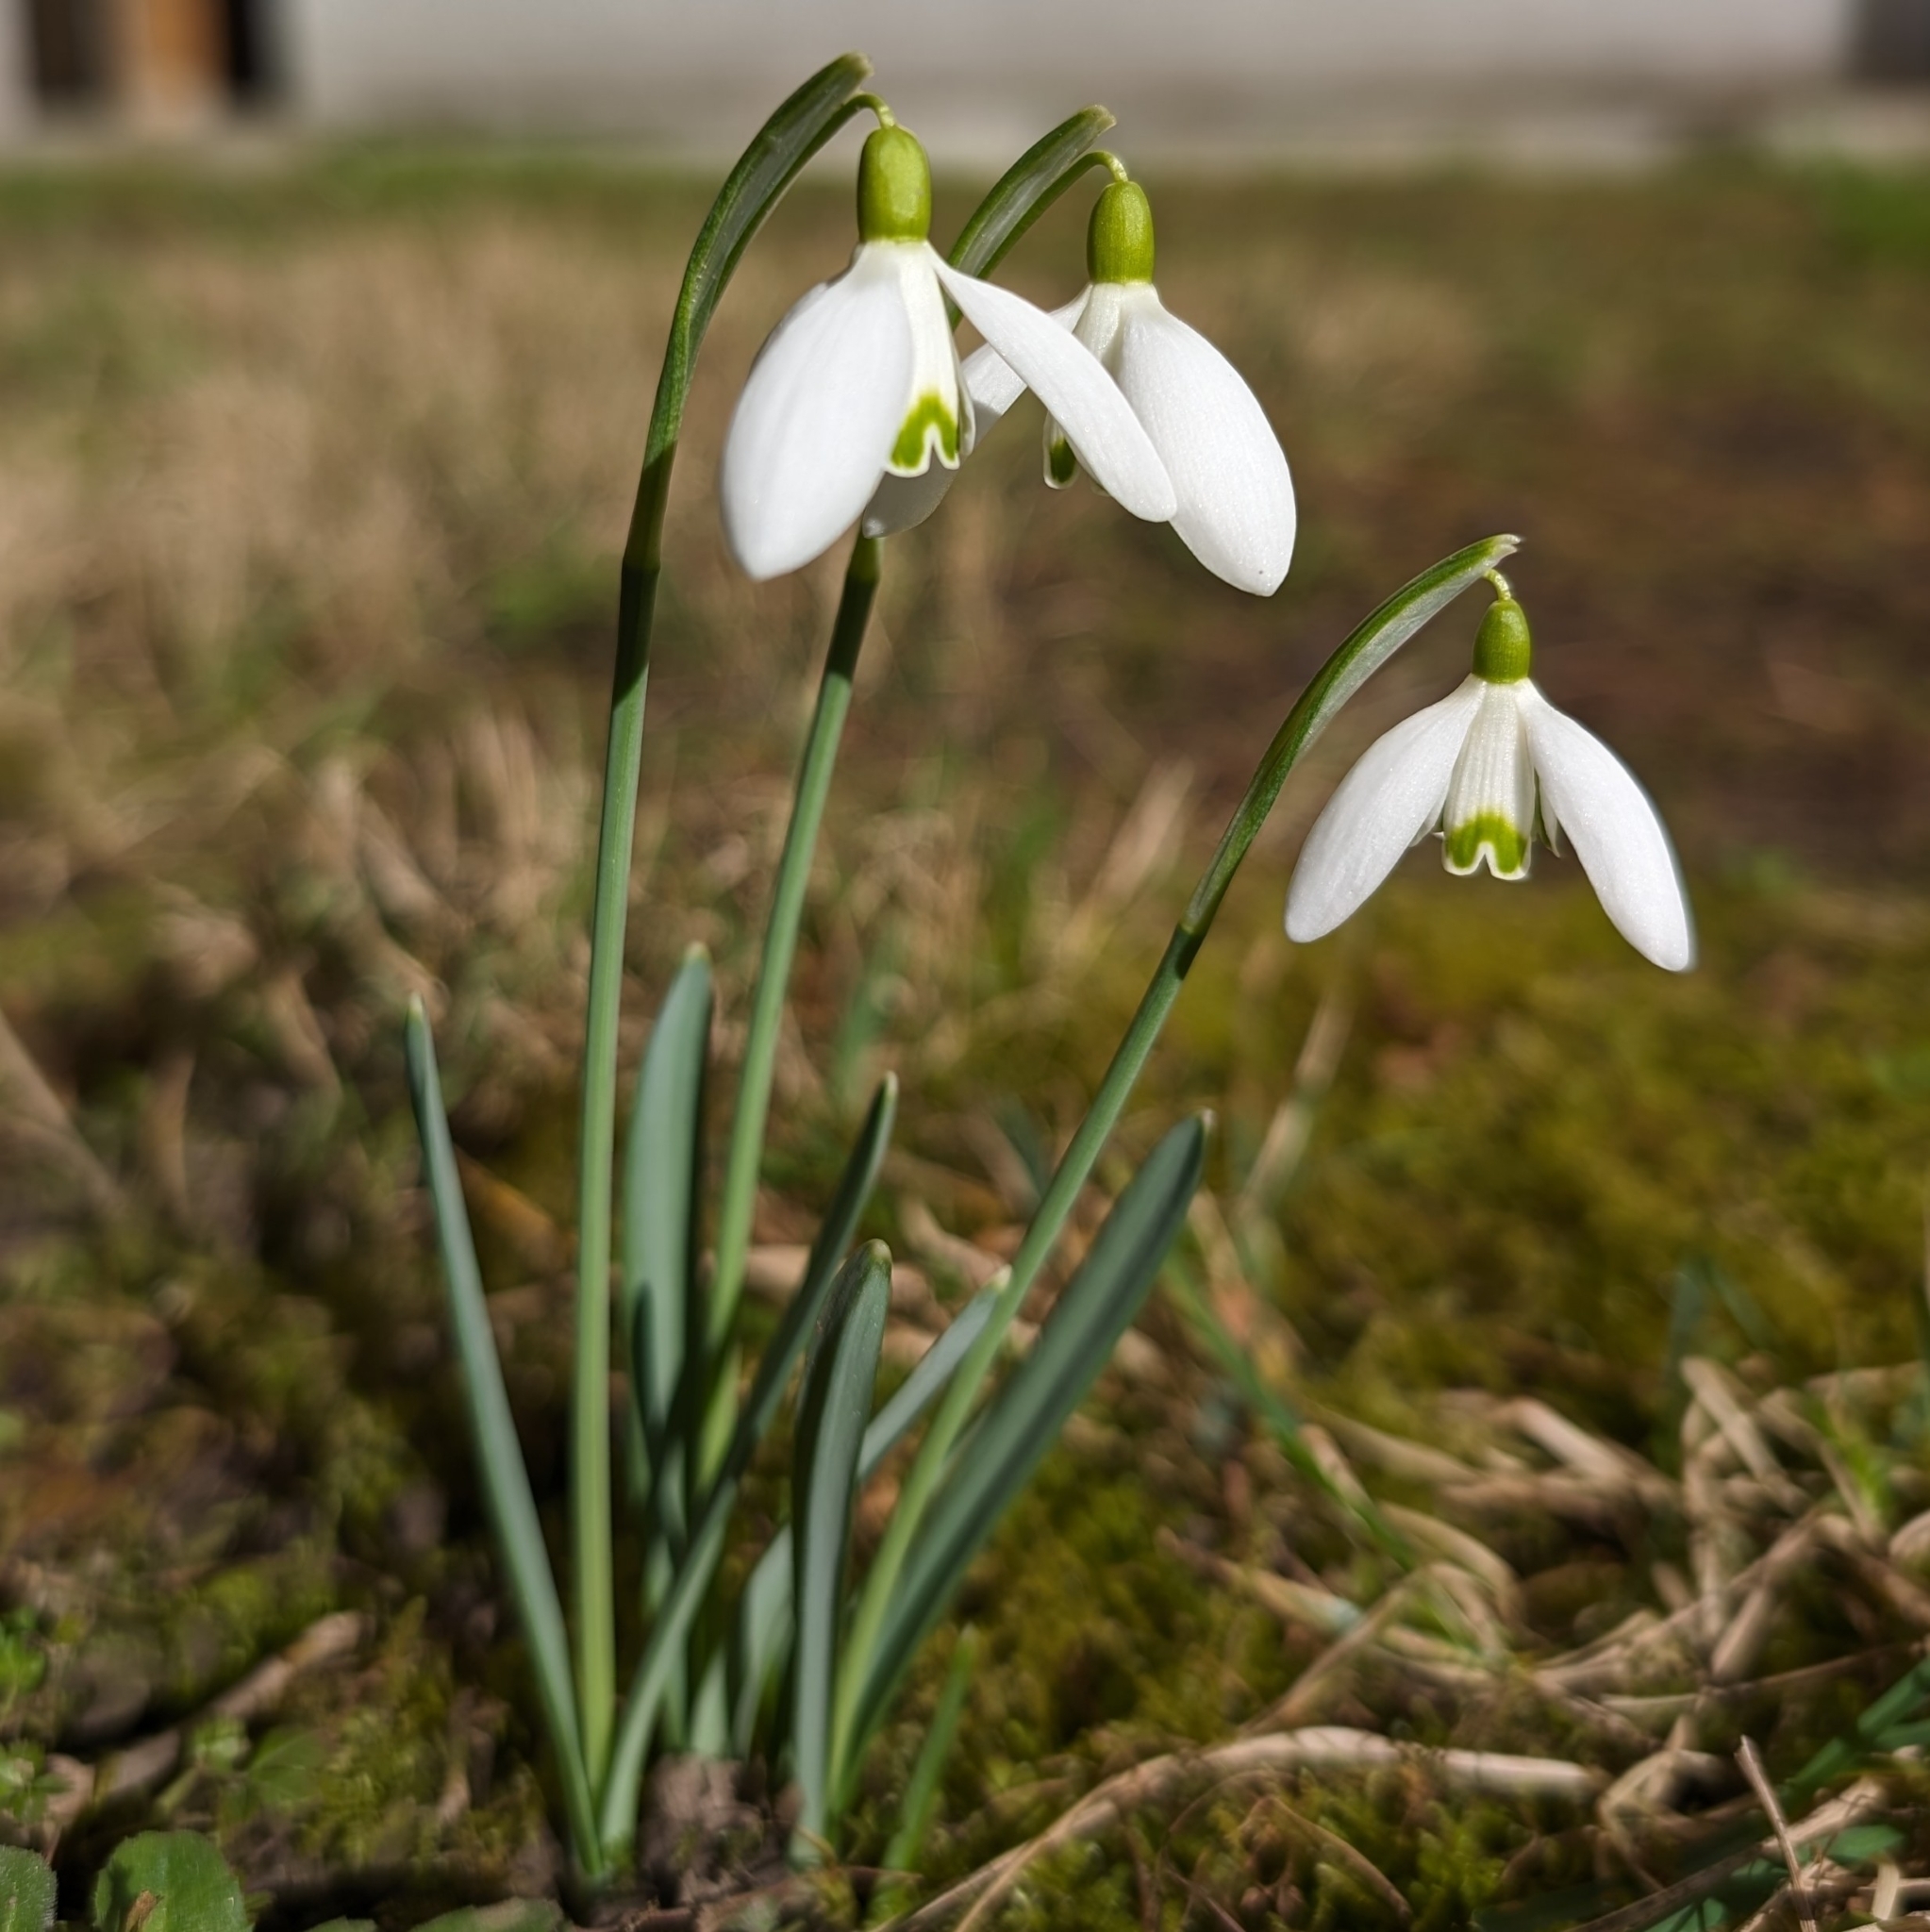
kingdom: Plantae
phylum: Tracheophyta
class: Liliopsida
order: Asparagales
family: Amaryllidaceae
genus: Galanthus
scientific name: Galanthus nivalis
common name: Snowdrop
